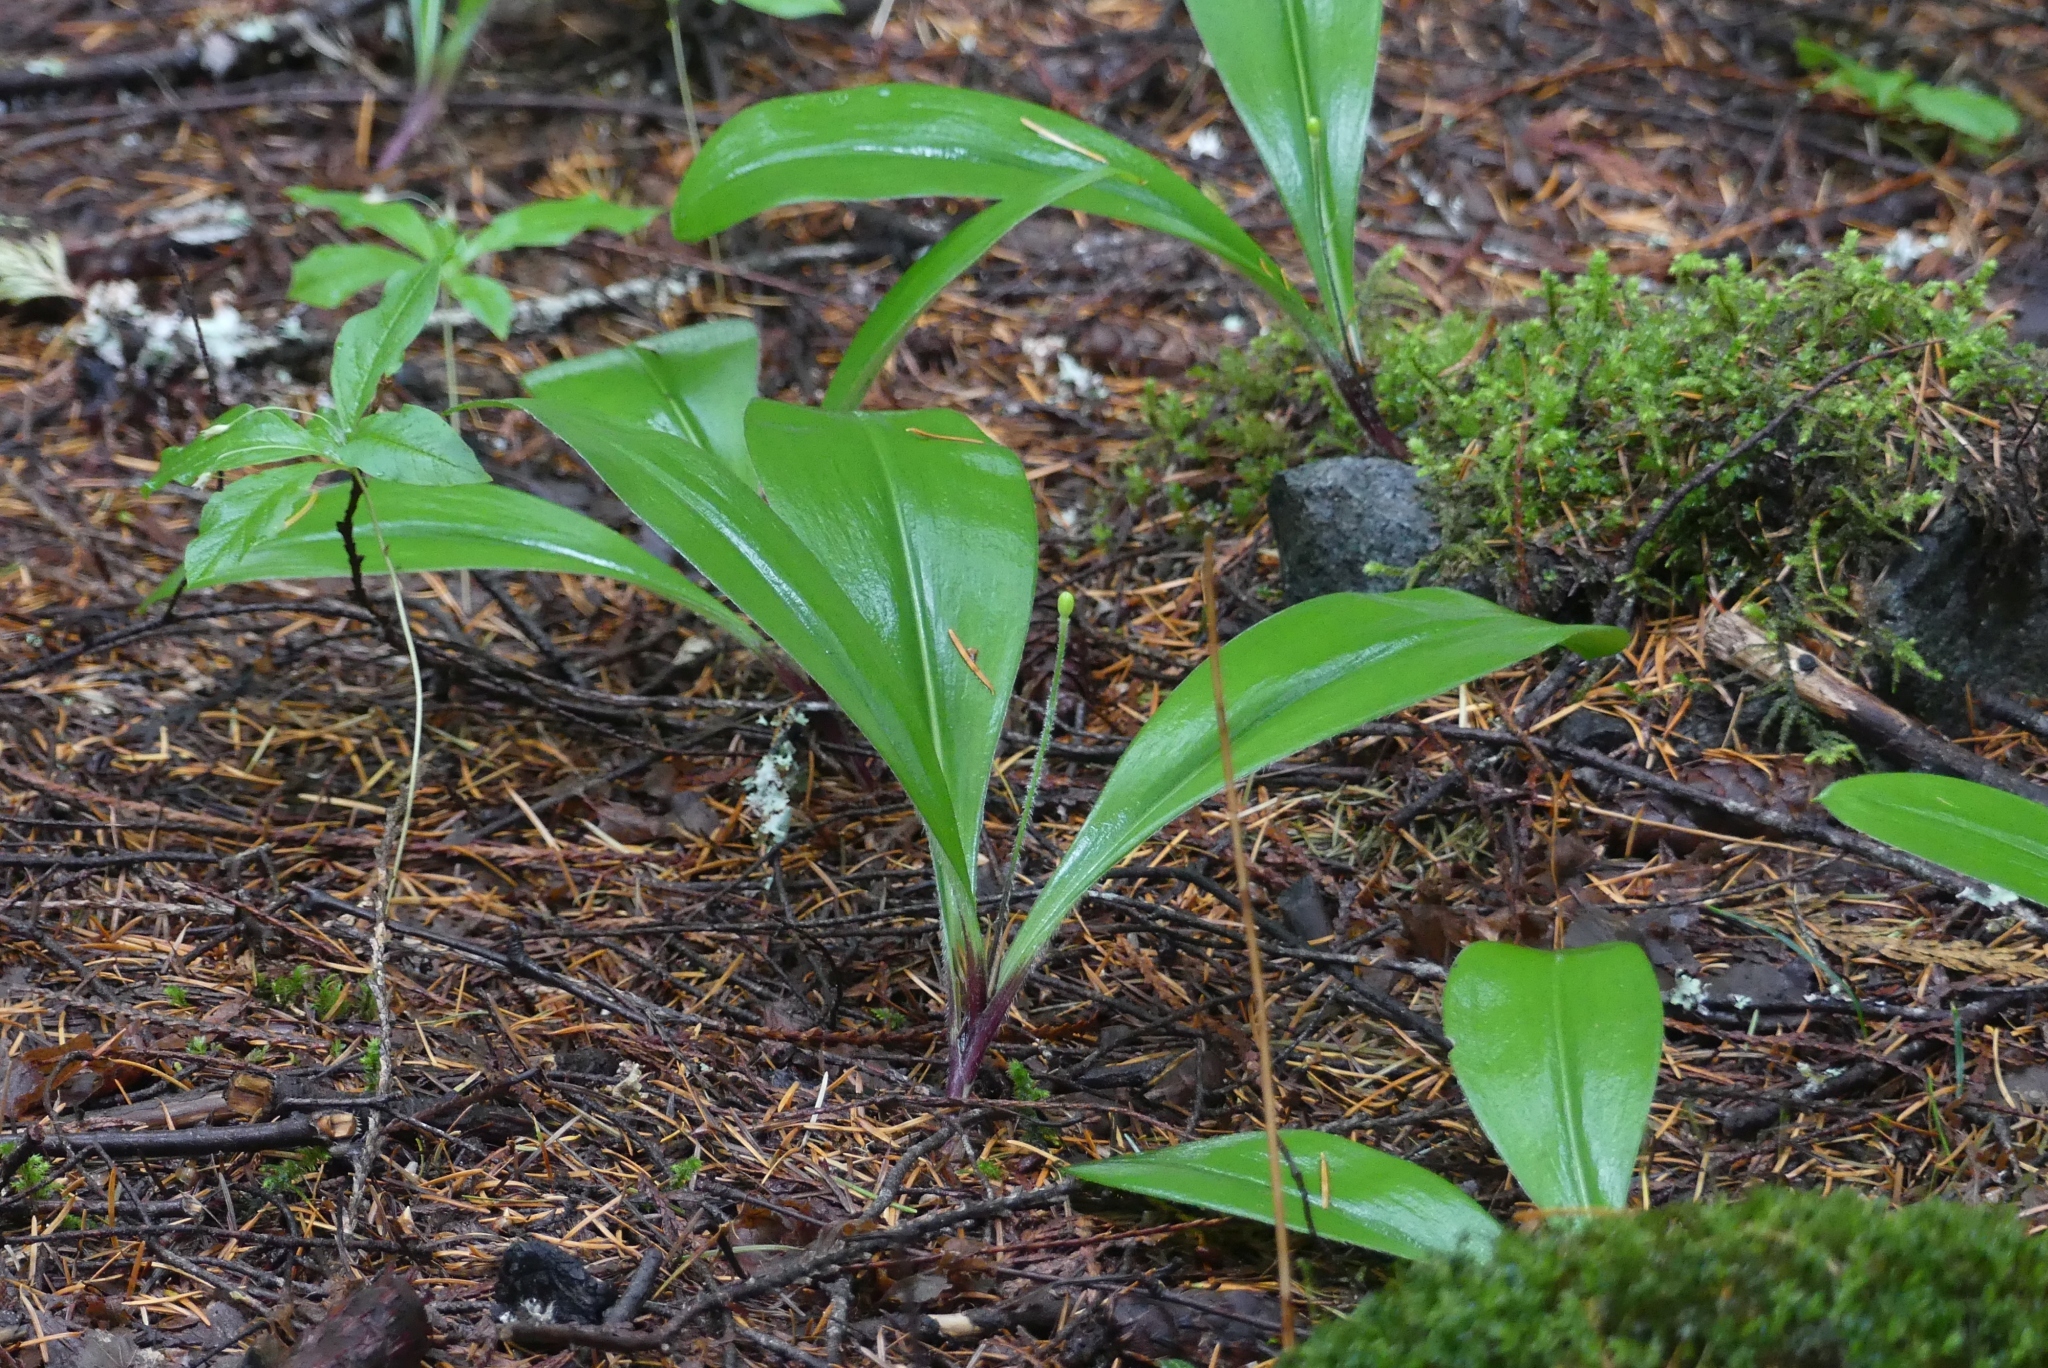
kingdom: Plantae
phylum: Tracheophyta
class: Liliopsida
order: Liliales
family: Liliaceae
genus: Clintonia
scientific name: Clintonia uniflora
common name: Queen's cup
